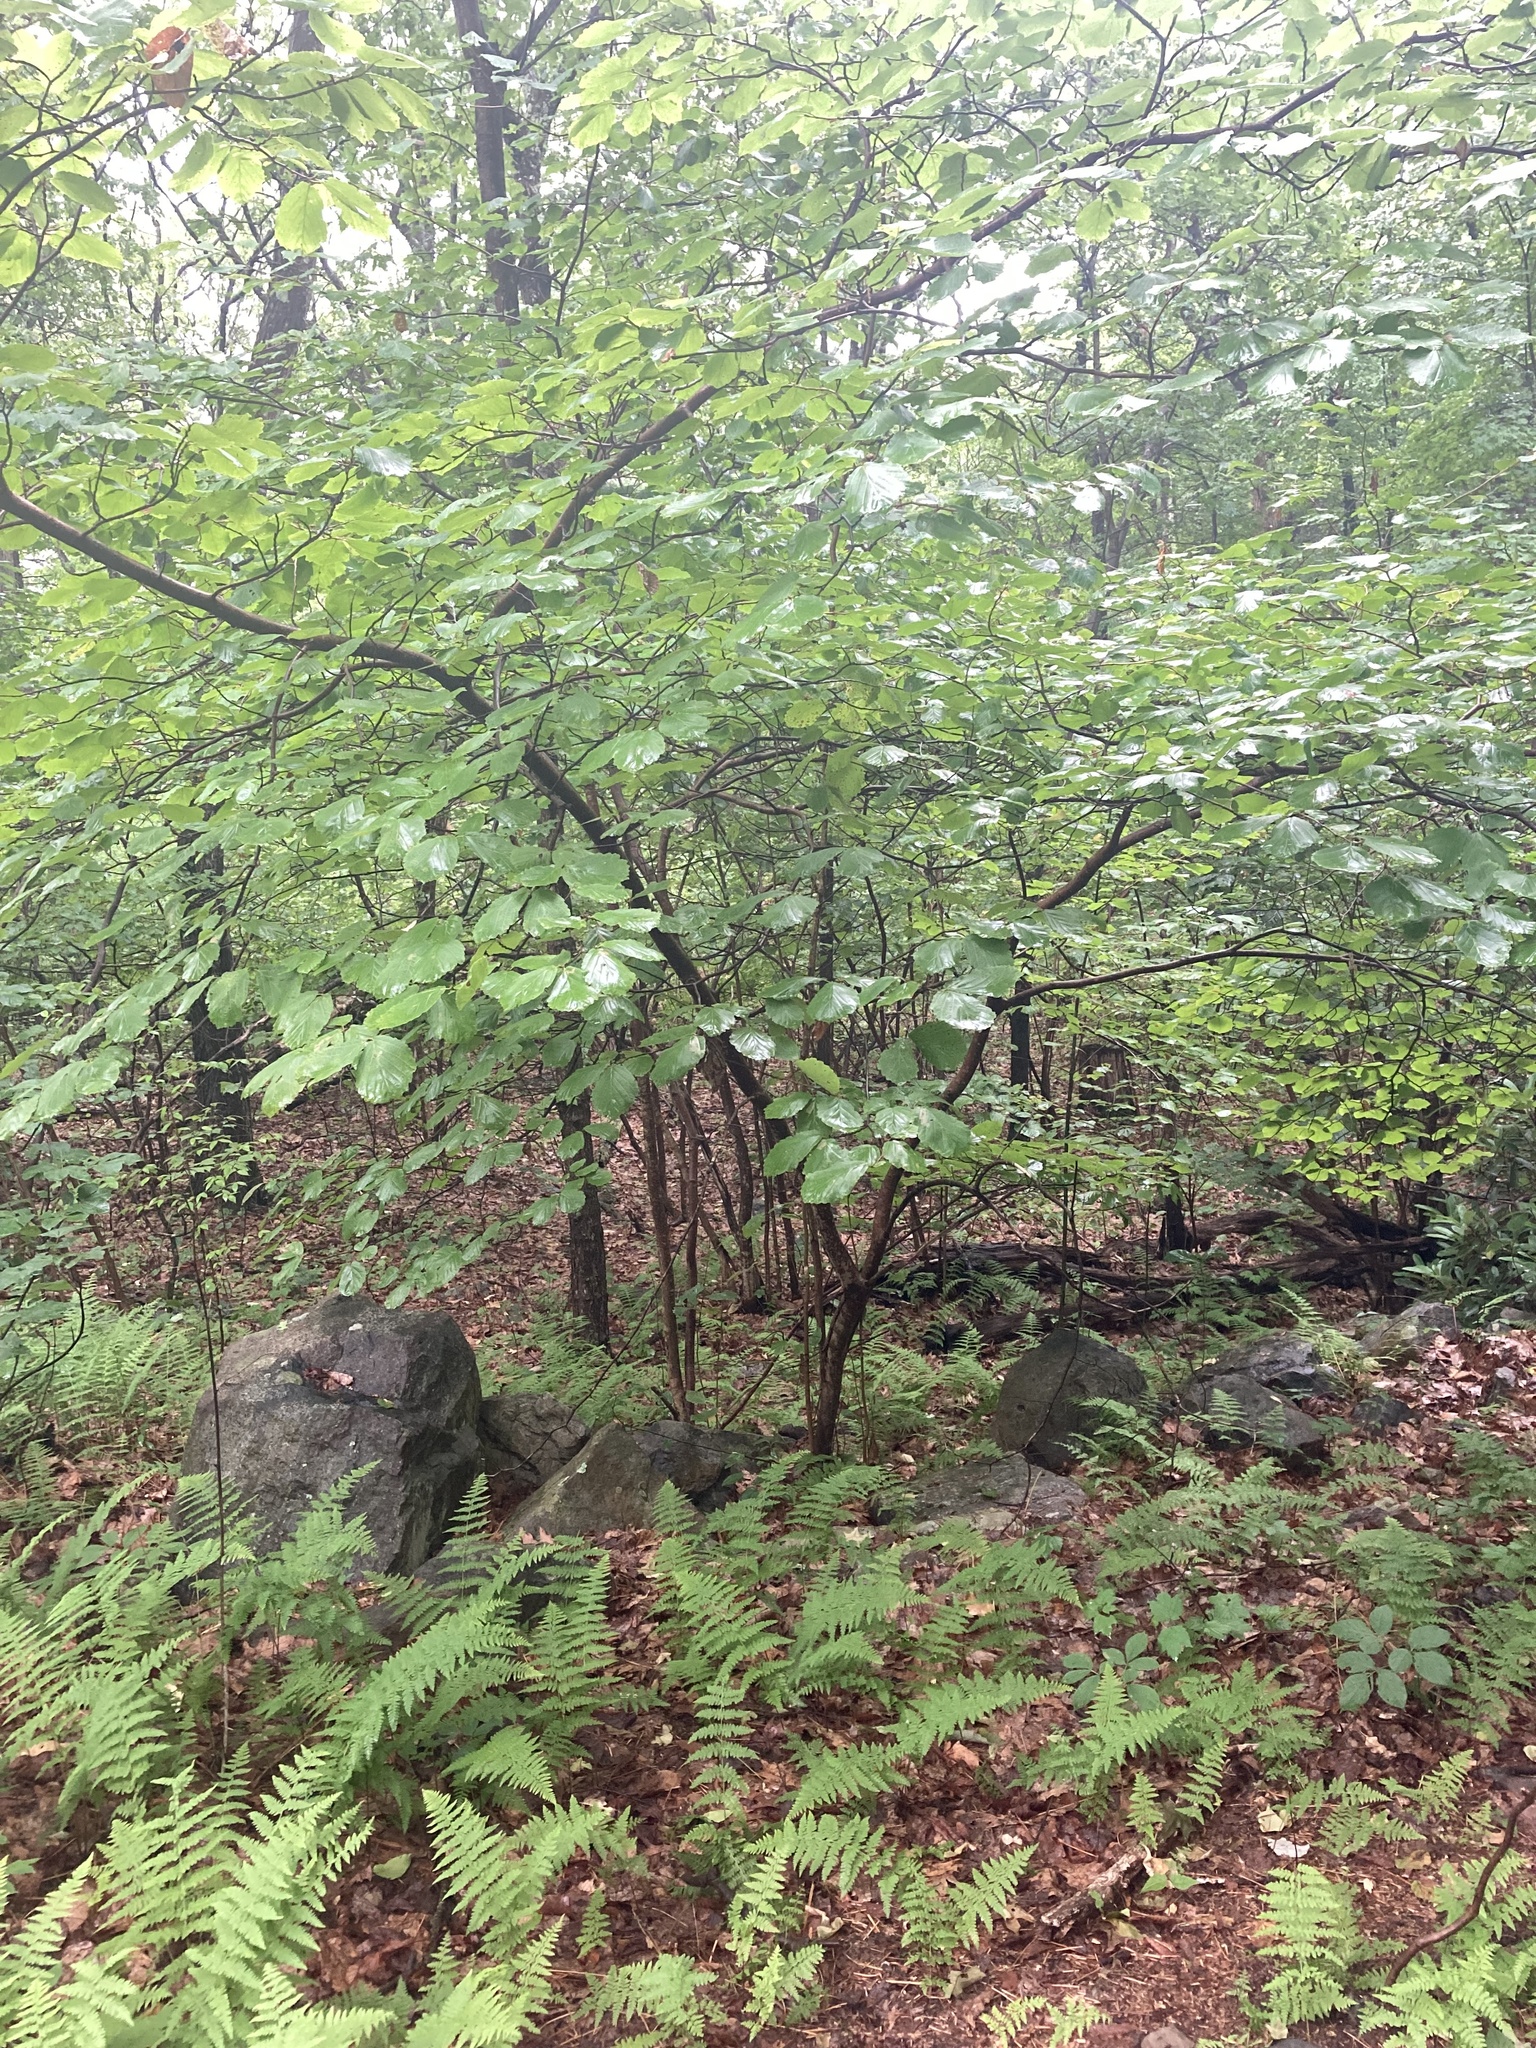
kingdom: Plantae
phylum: Tracheophyta
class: Magnoliopsida
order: Saxifragales
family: Hamamelidaceae
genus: Hamamelis
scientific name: Hamamelis virginiana
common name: Witch-hazel
